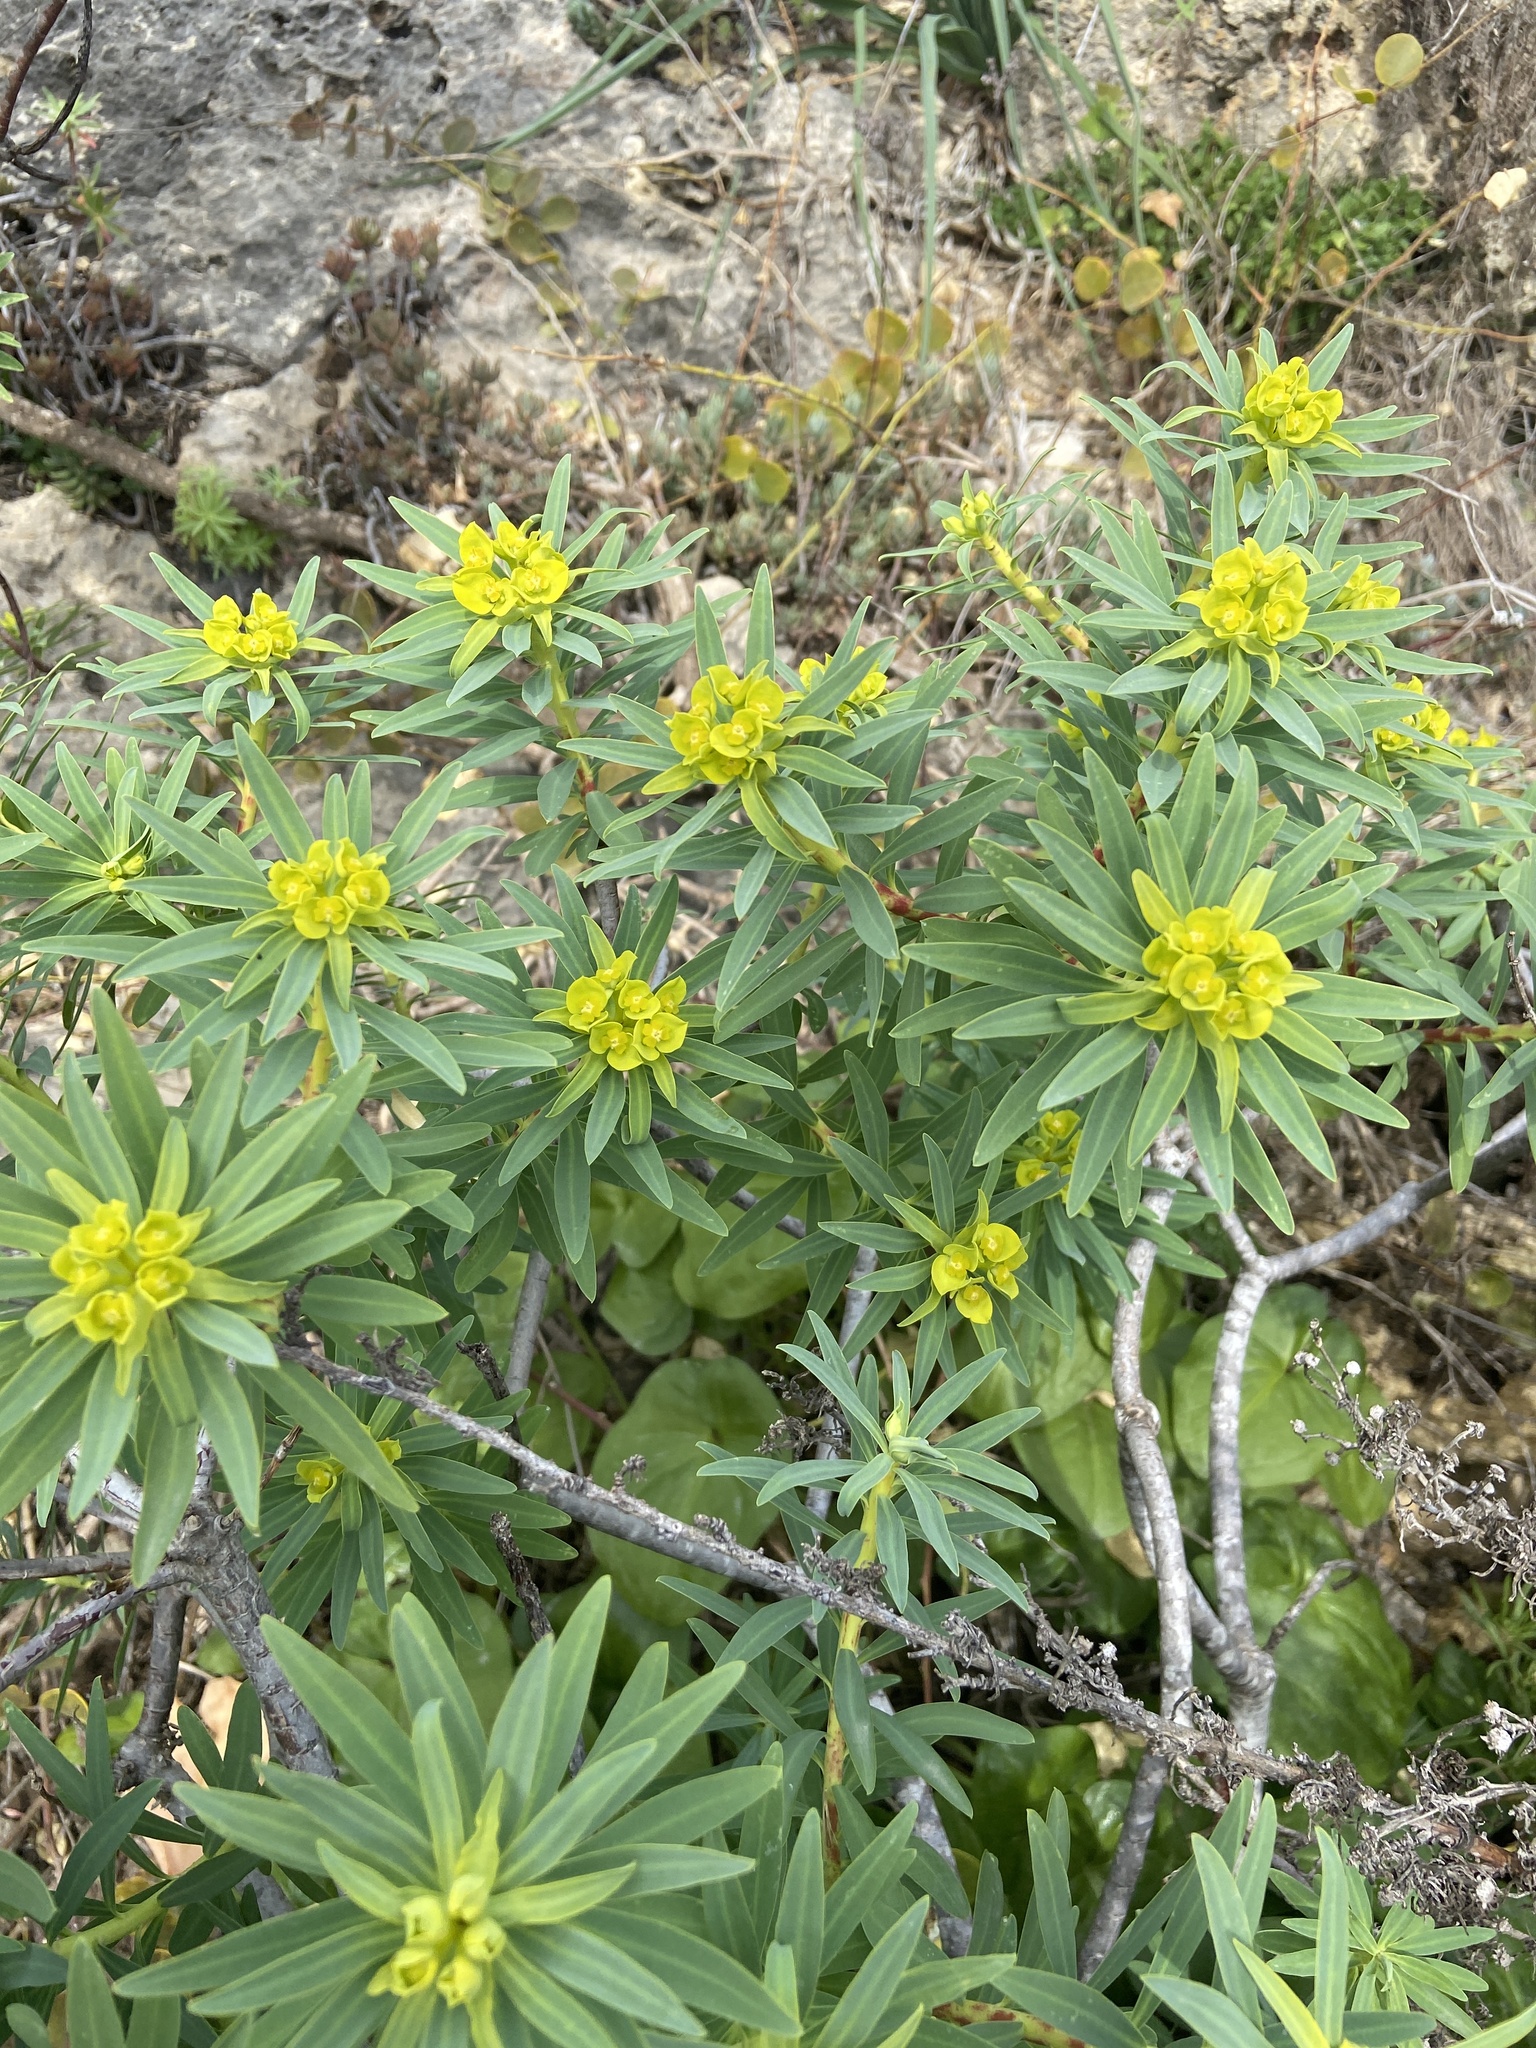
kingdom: Plantae
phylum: Tracheophyta
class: Magnoliopsida
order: Malpighiales
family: Euphorbiaceae
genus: Euphorbia
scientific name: Euphorbia dendroides
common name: Tree spurge
